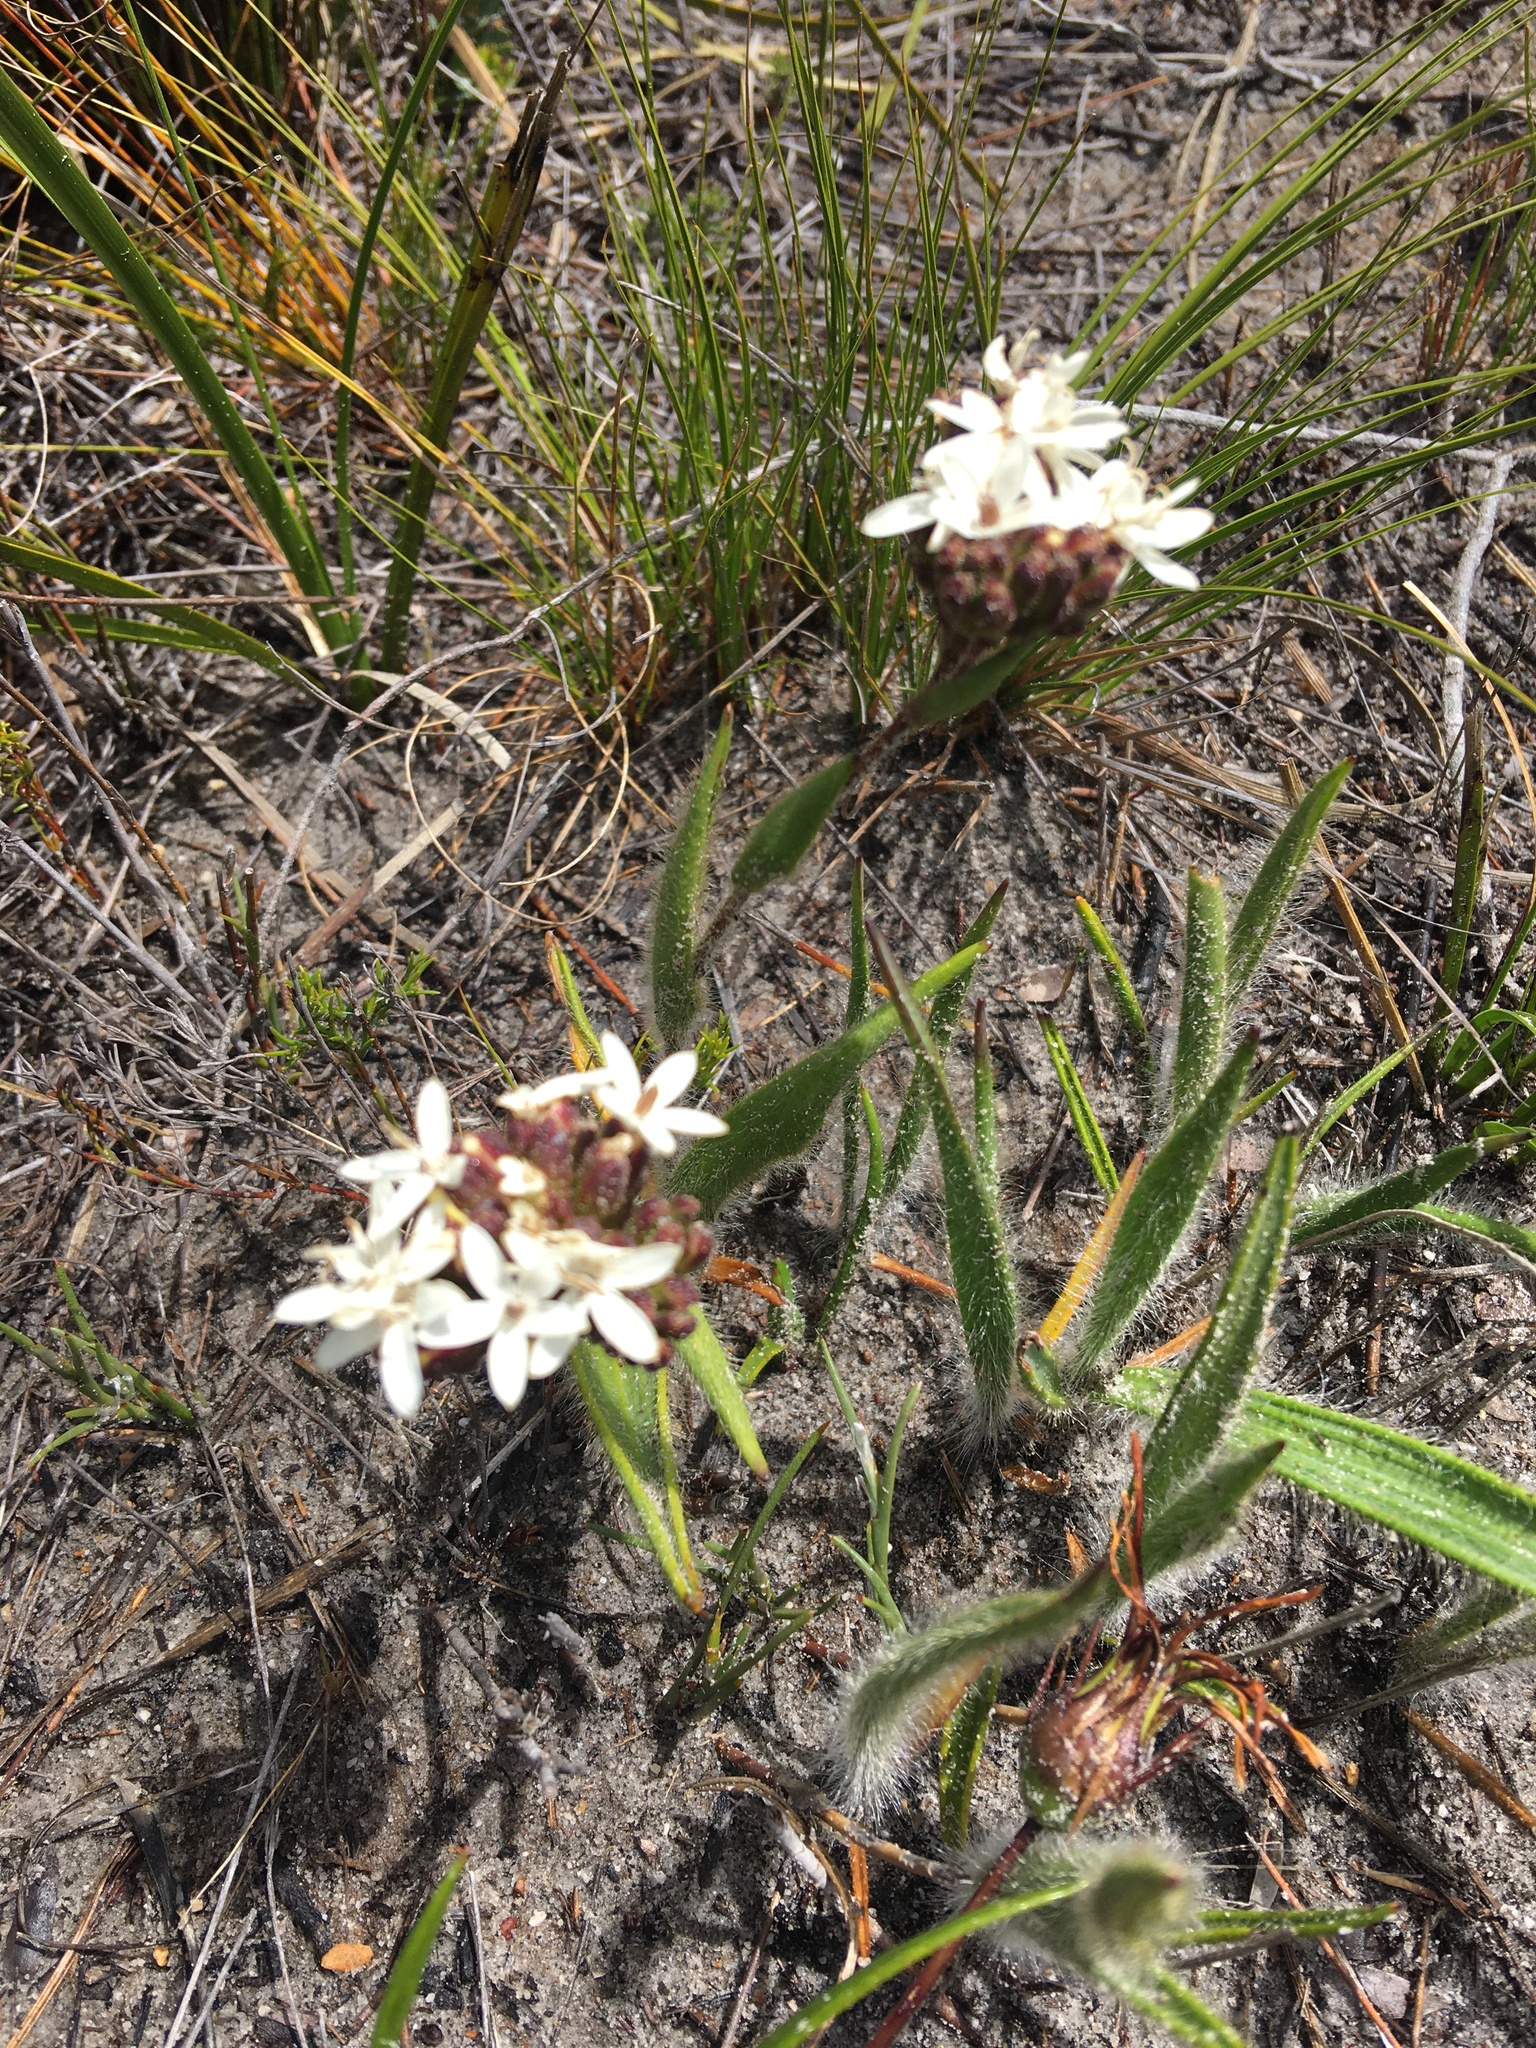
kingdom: Plantae
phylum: Tracheophyta
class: Magnoliopsida
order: Asterales
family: Asteraceae
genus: Corymbium
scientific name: Corymbium villosum
